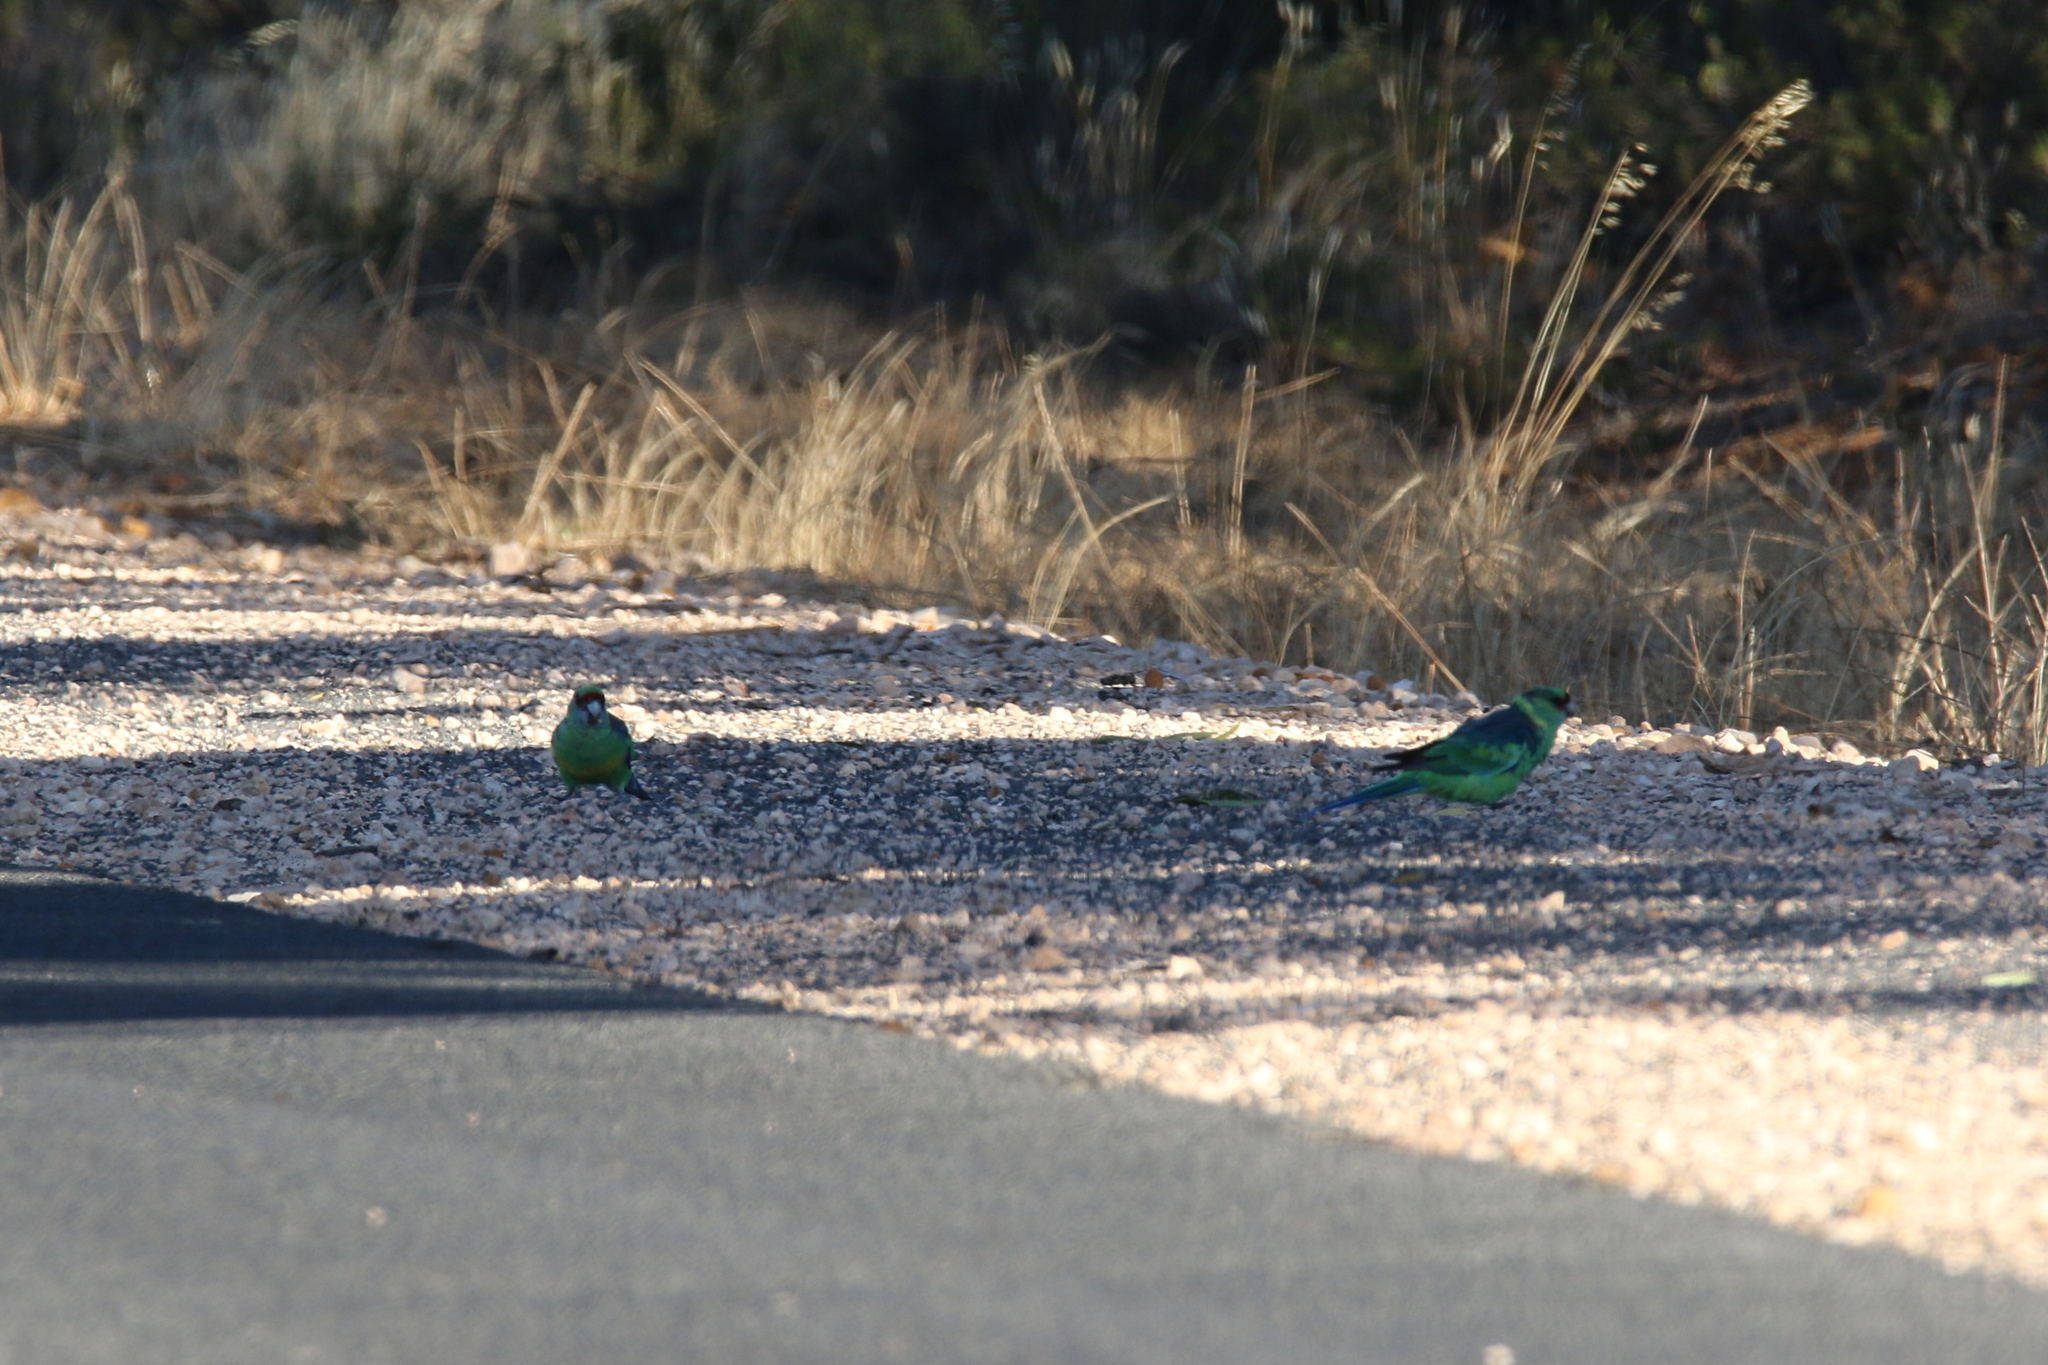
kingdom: Animalia
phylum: Chordata
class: Aves
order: Psittaciformes
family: Psittacidae
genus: Barnardius
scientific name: Barnardius zonarius
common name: Australian ringneck
